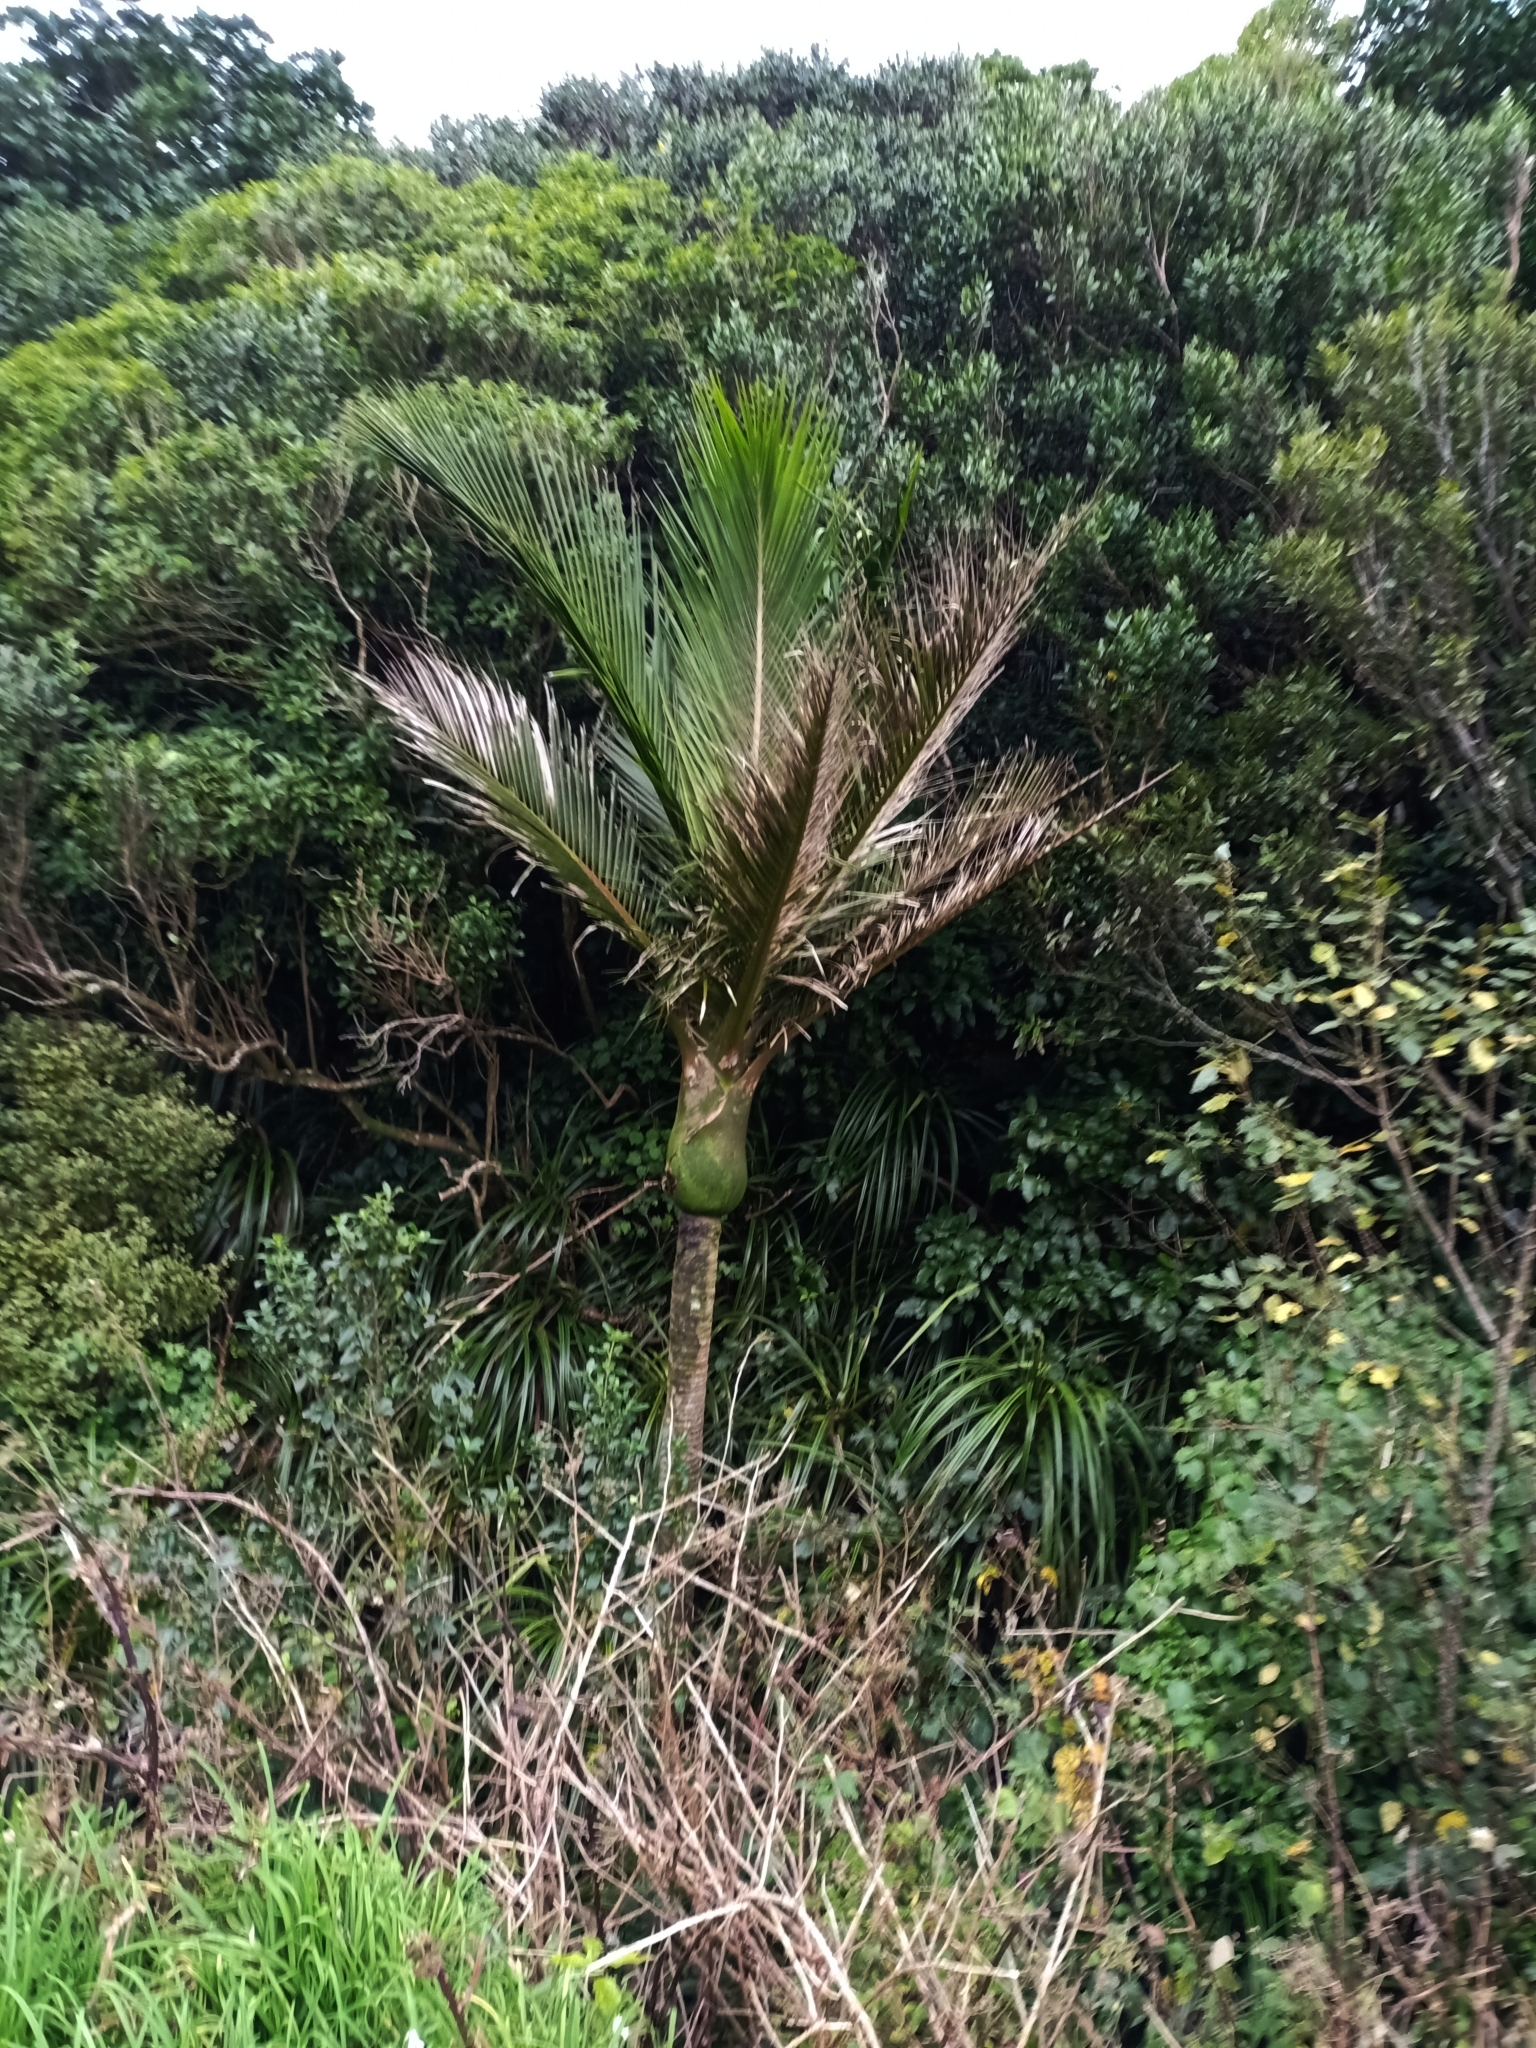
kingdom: Plantae
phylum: Tracheophyta
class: Liliopsida
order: Arecales
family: Arecaceae
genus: Rhopalostylis
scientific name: Rhopalostylis sapida
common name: Feather-duster palm
